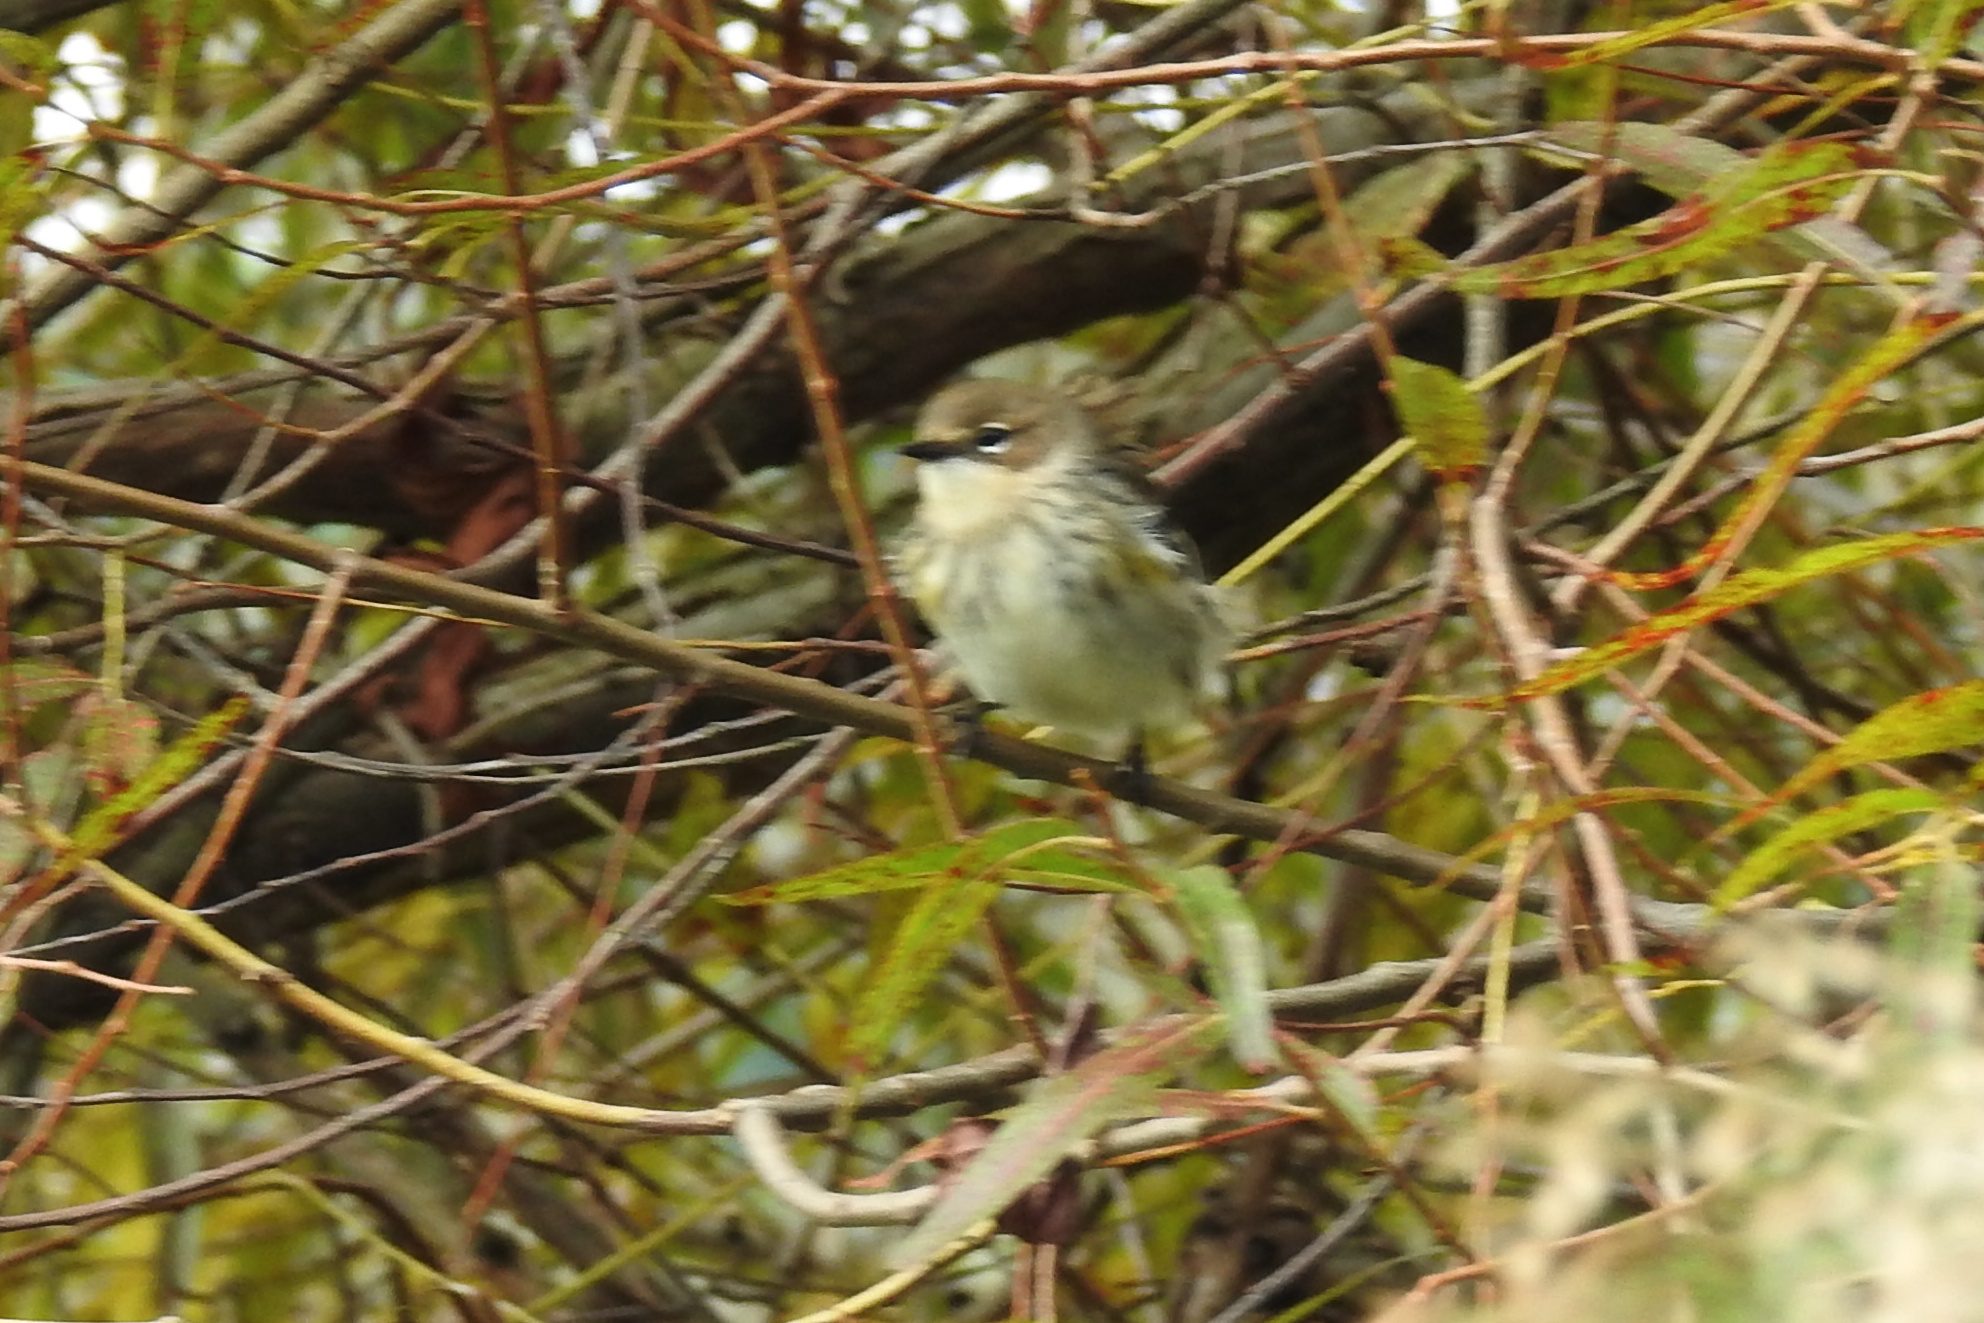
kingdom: Animalia
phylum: Chordata
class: Aves
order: Passeriformes
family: Parulidae
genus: Setophaga
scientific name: Setophaga coronata
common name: Myrtle warbler
